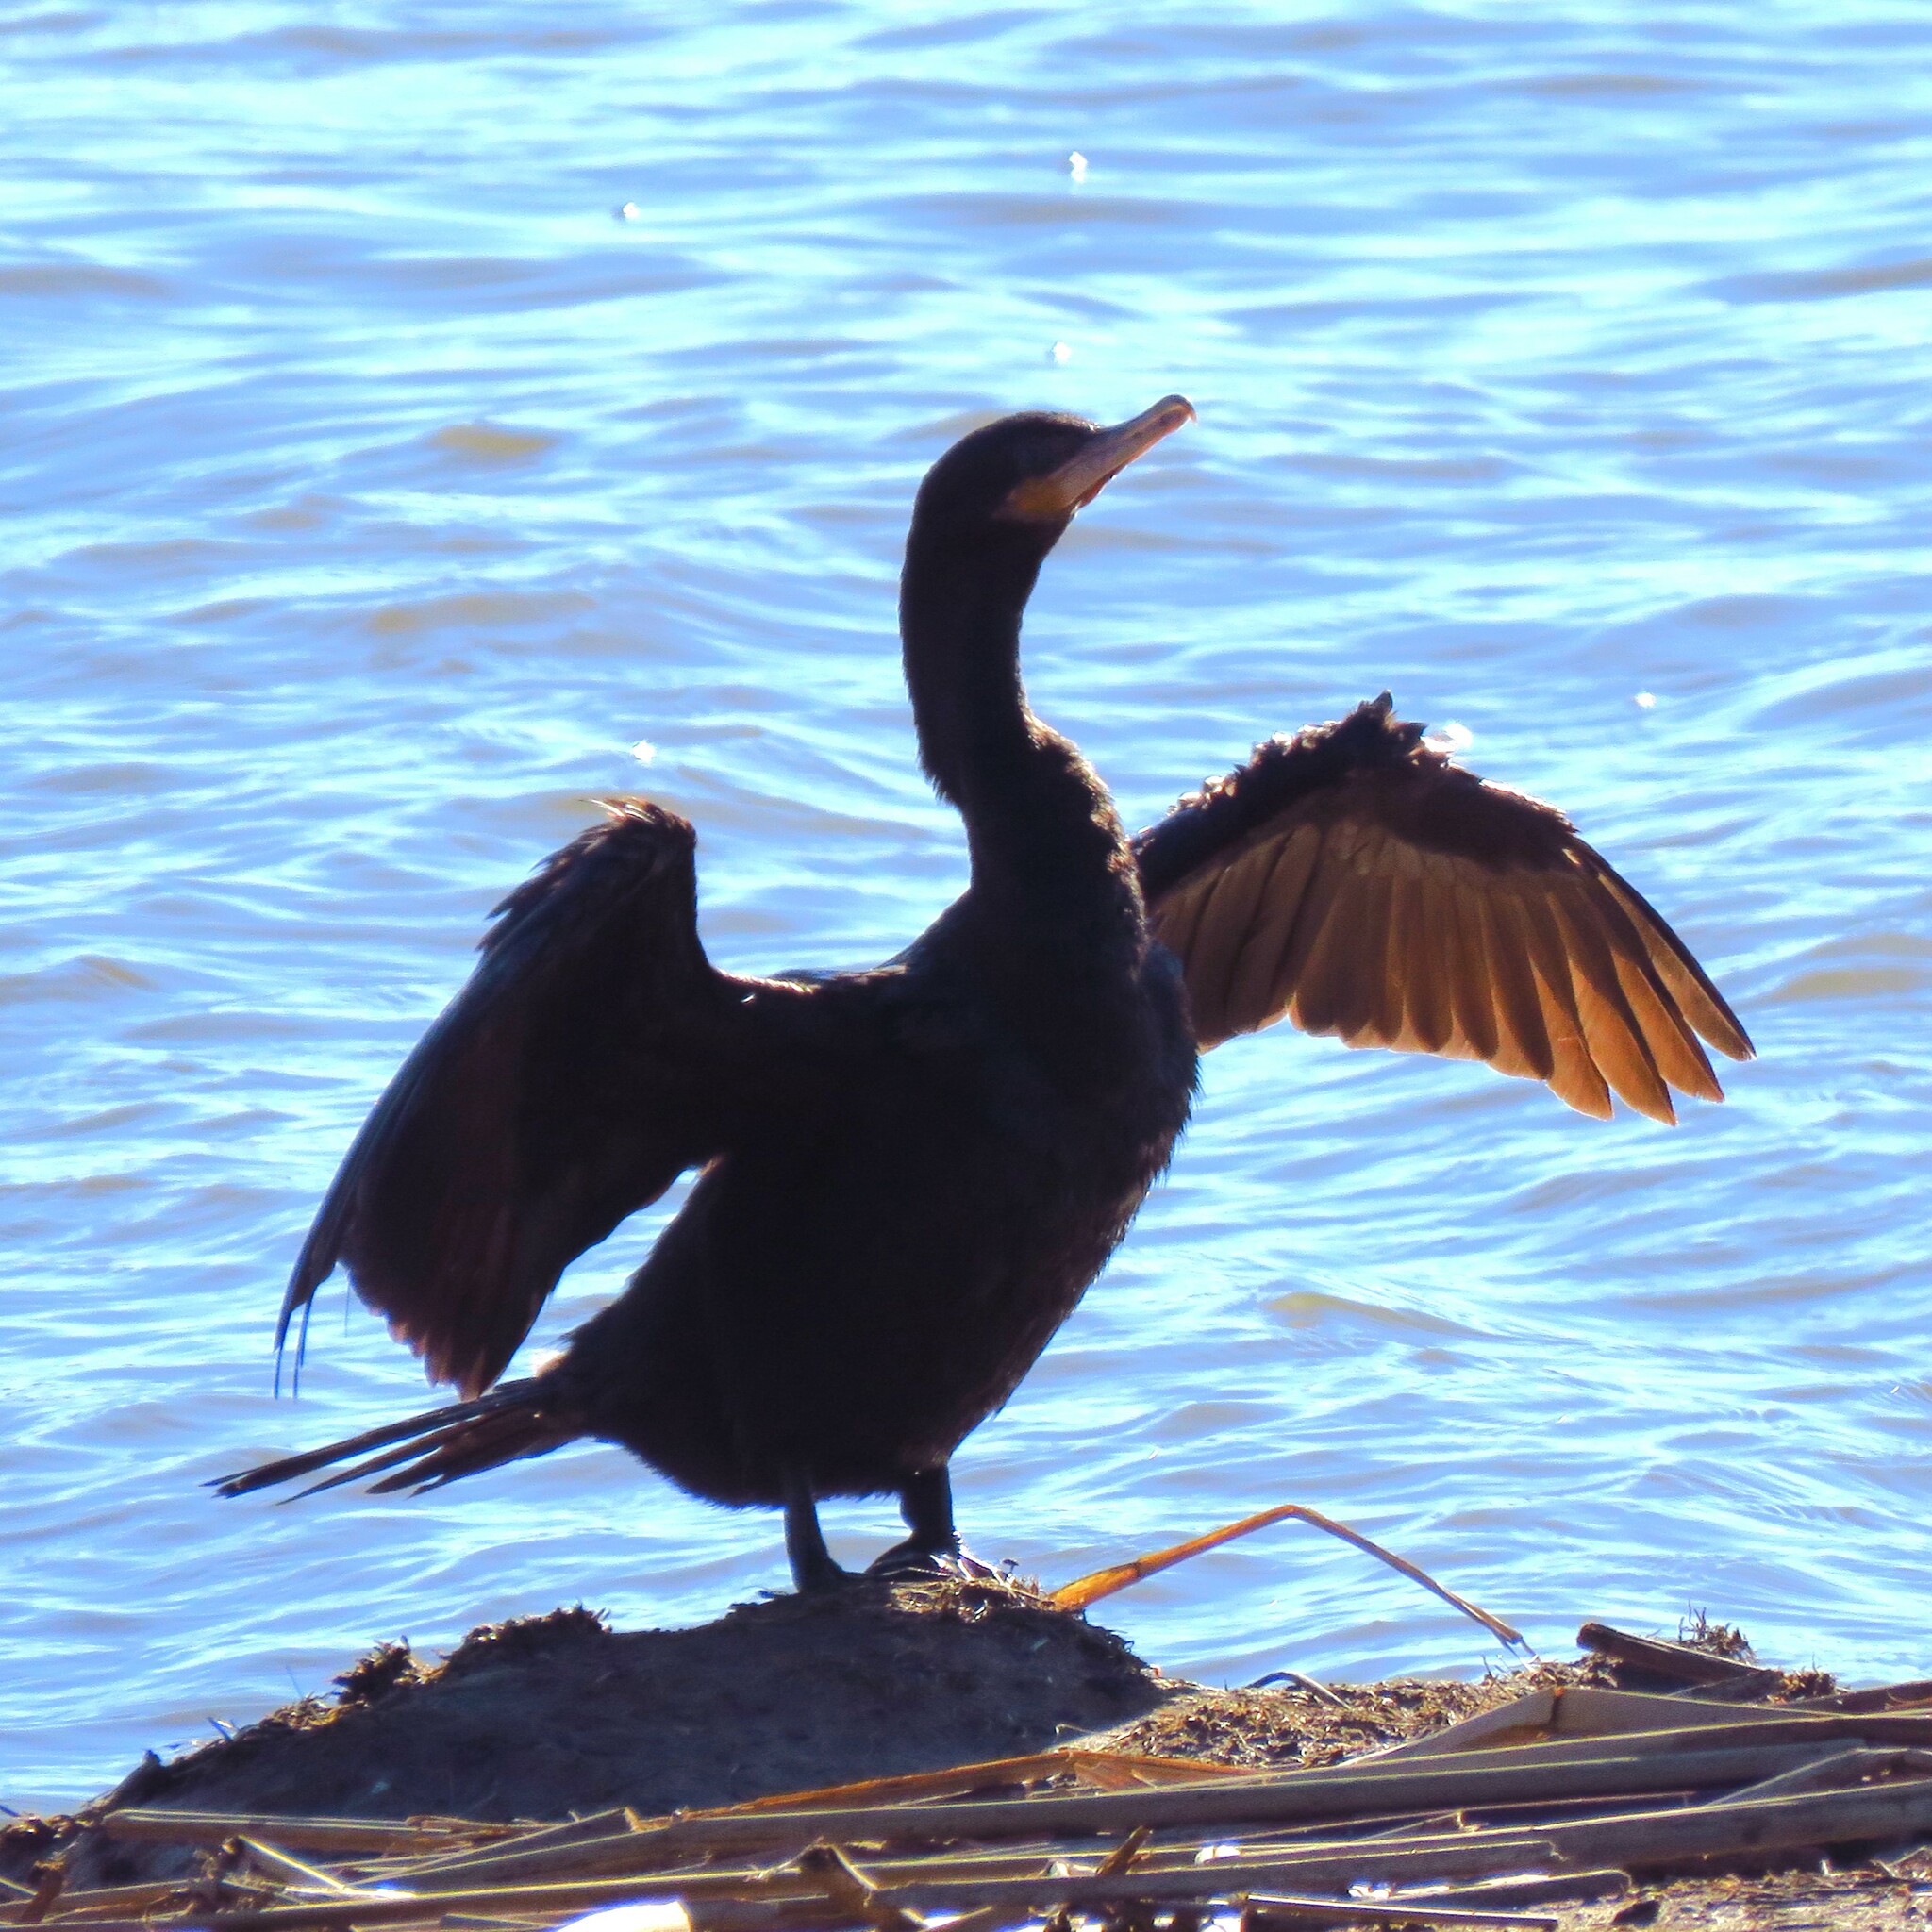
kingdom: Animalia
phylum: Chordata
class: Aves
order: Suliformes
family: Phalacrocoracidae
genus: Phalacrocorax
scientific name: Phalacrocorax brasilianus
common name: Neotropic cormorant
